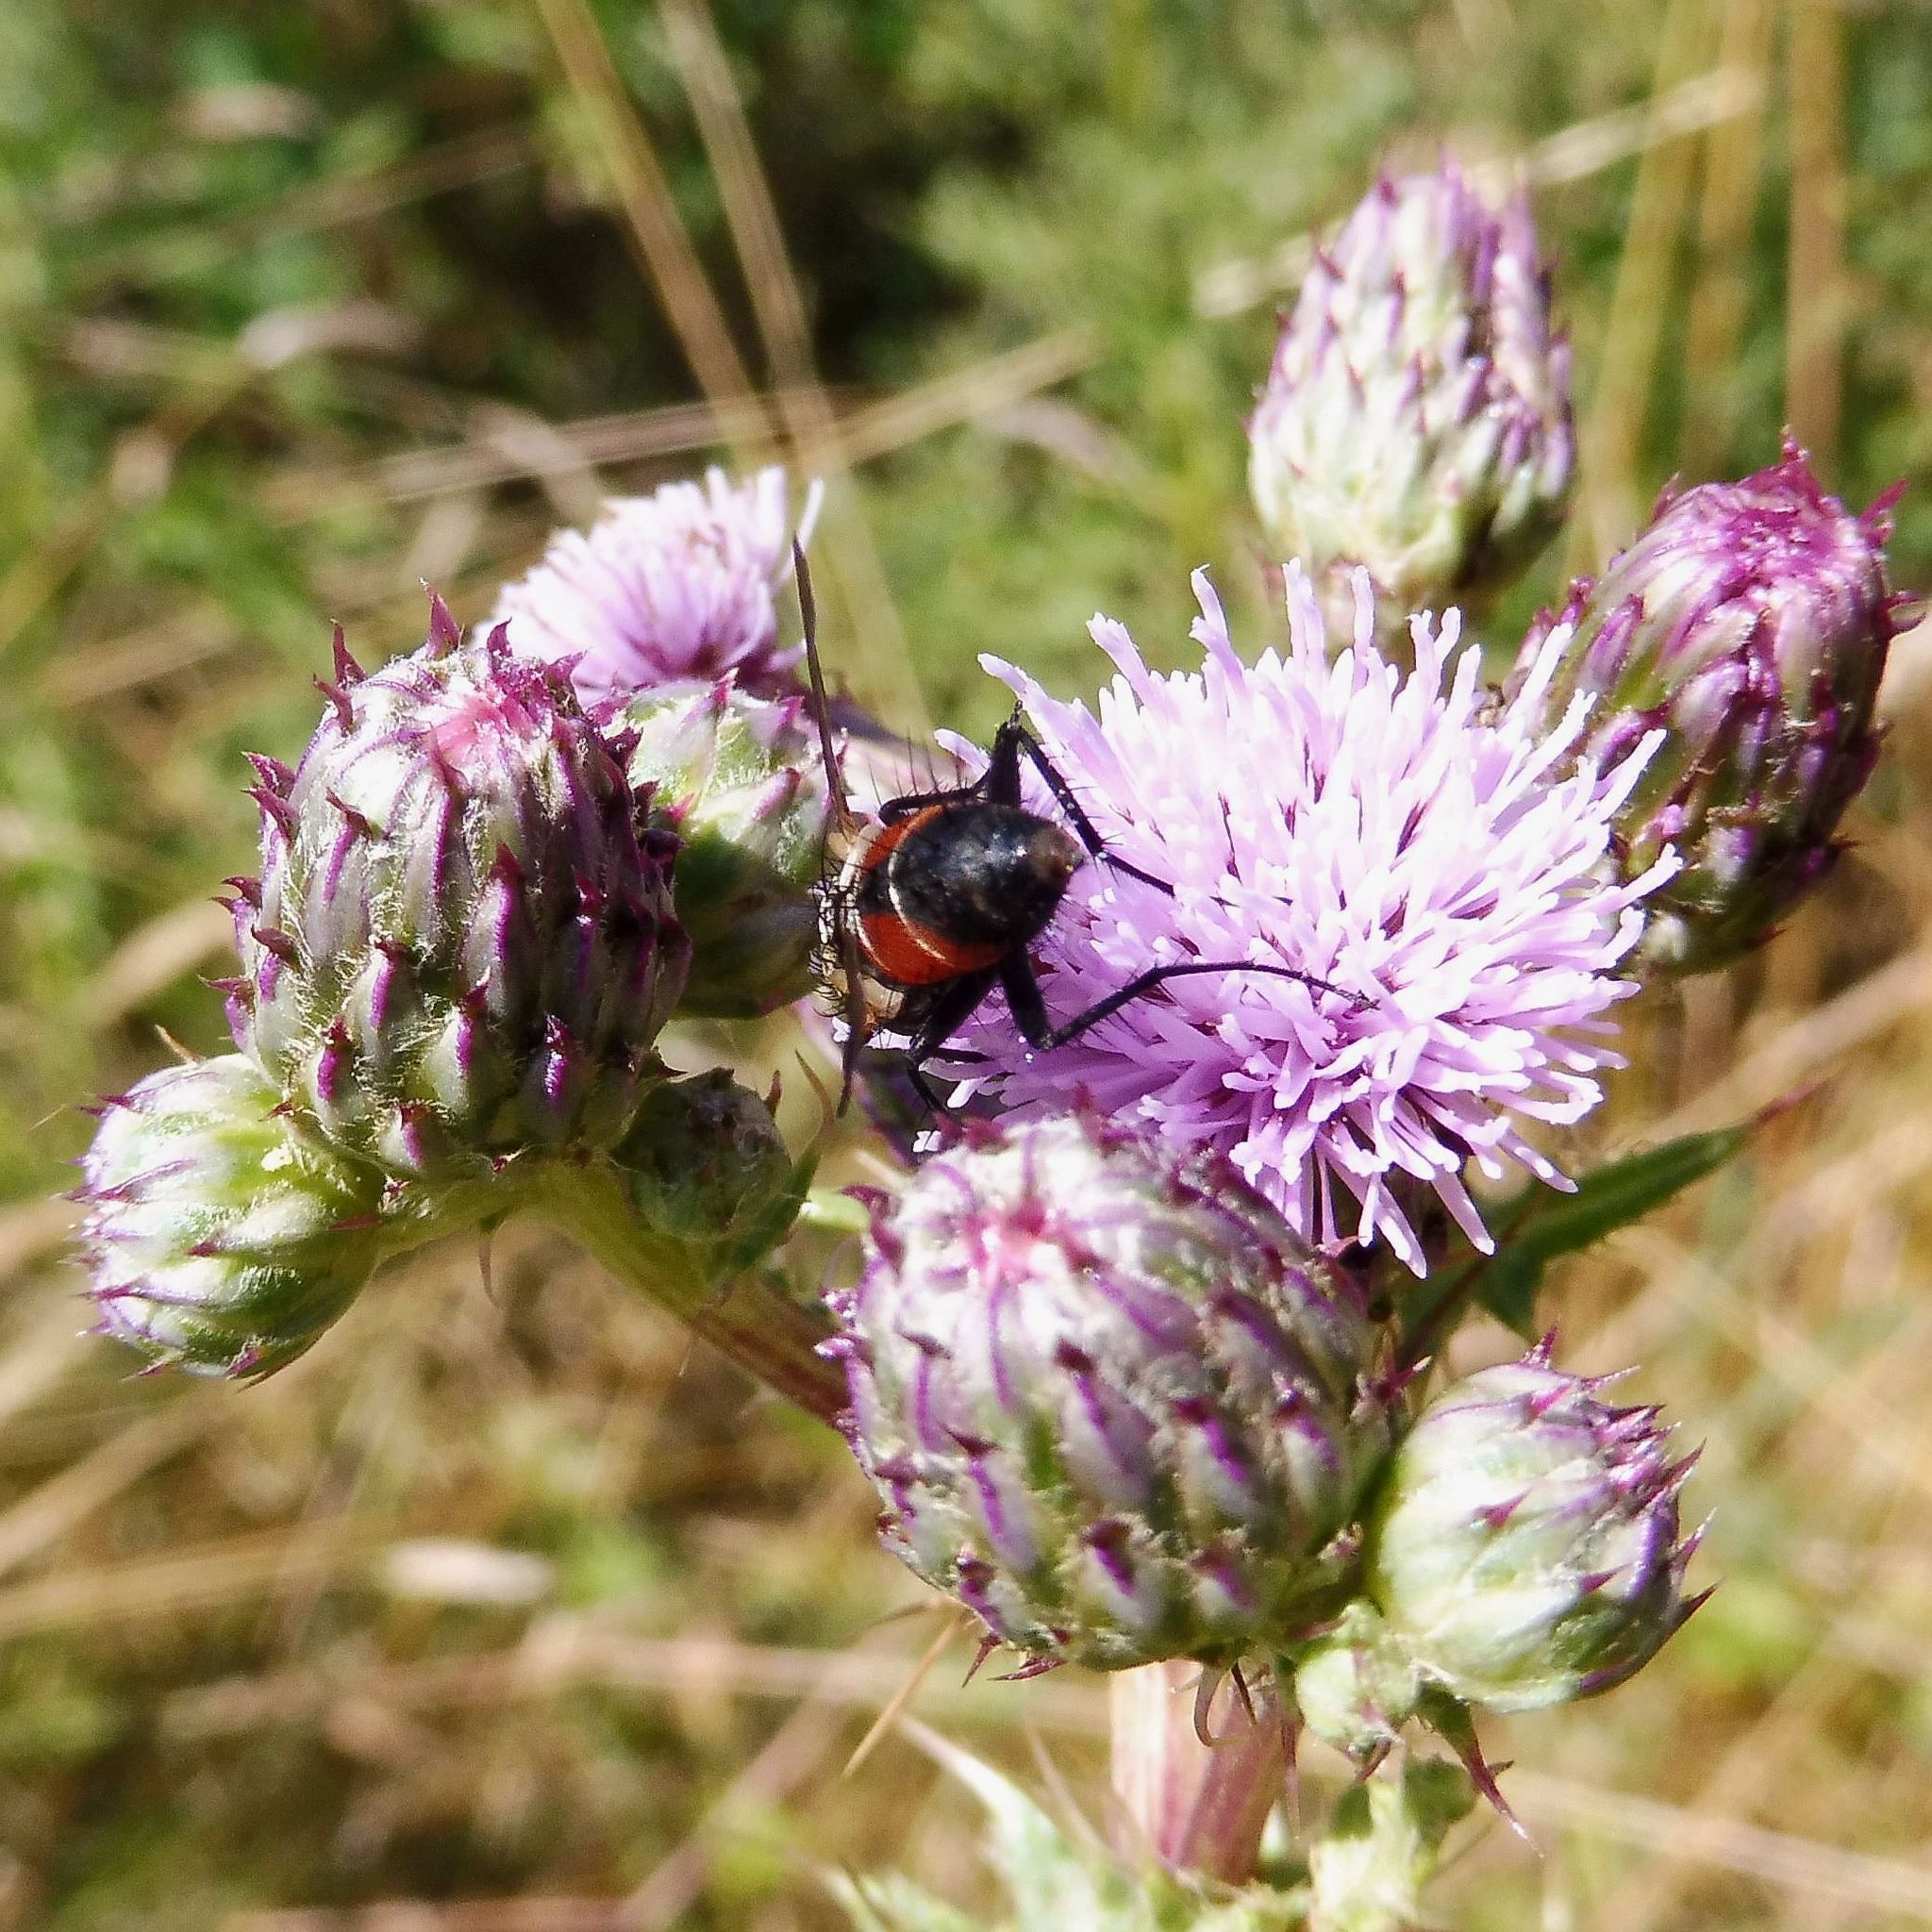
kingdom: Animalia
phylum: Arthropoda
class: Insecta
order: Diptera
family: Tachinidae
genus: Eriothrix
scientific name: Eriothrix rufomaculatus
